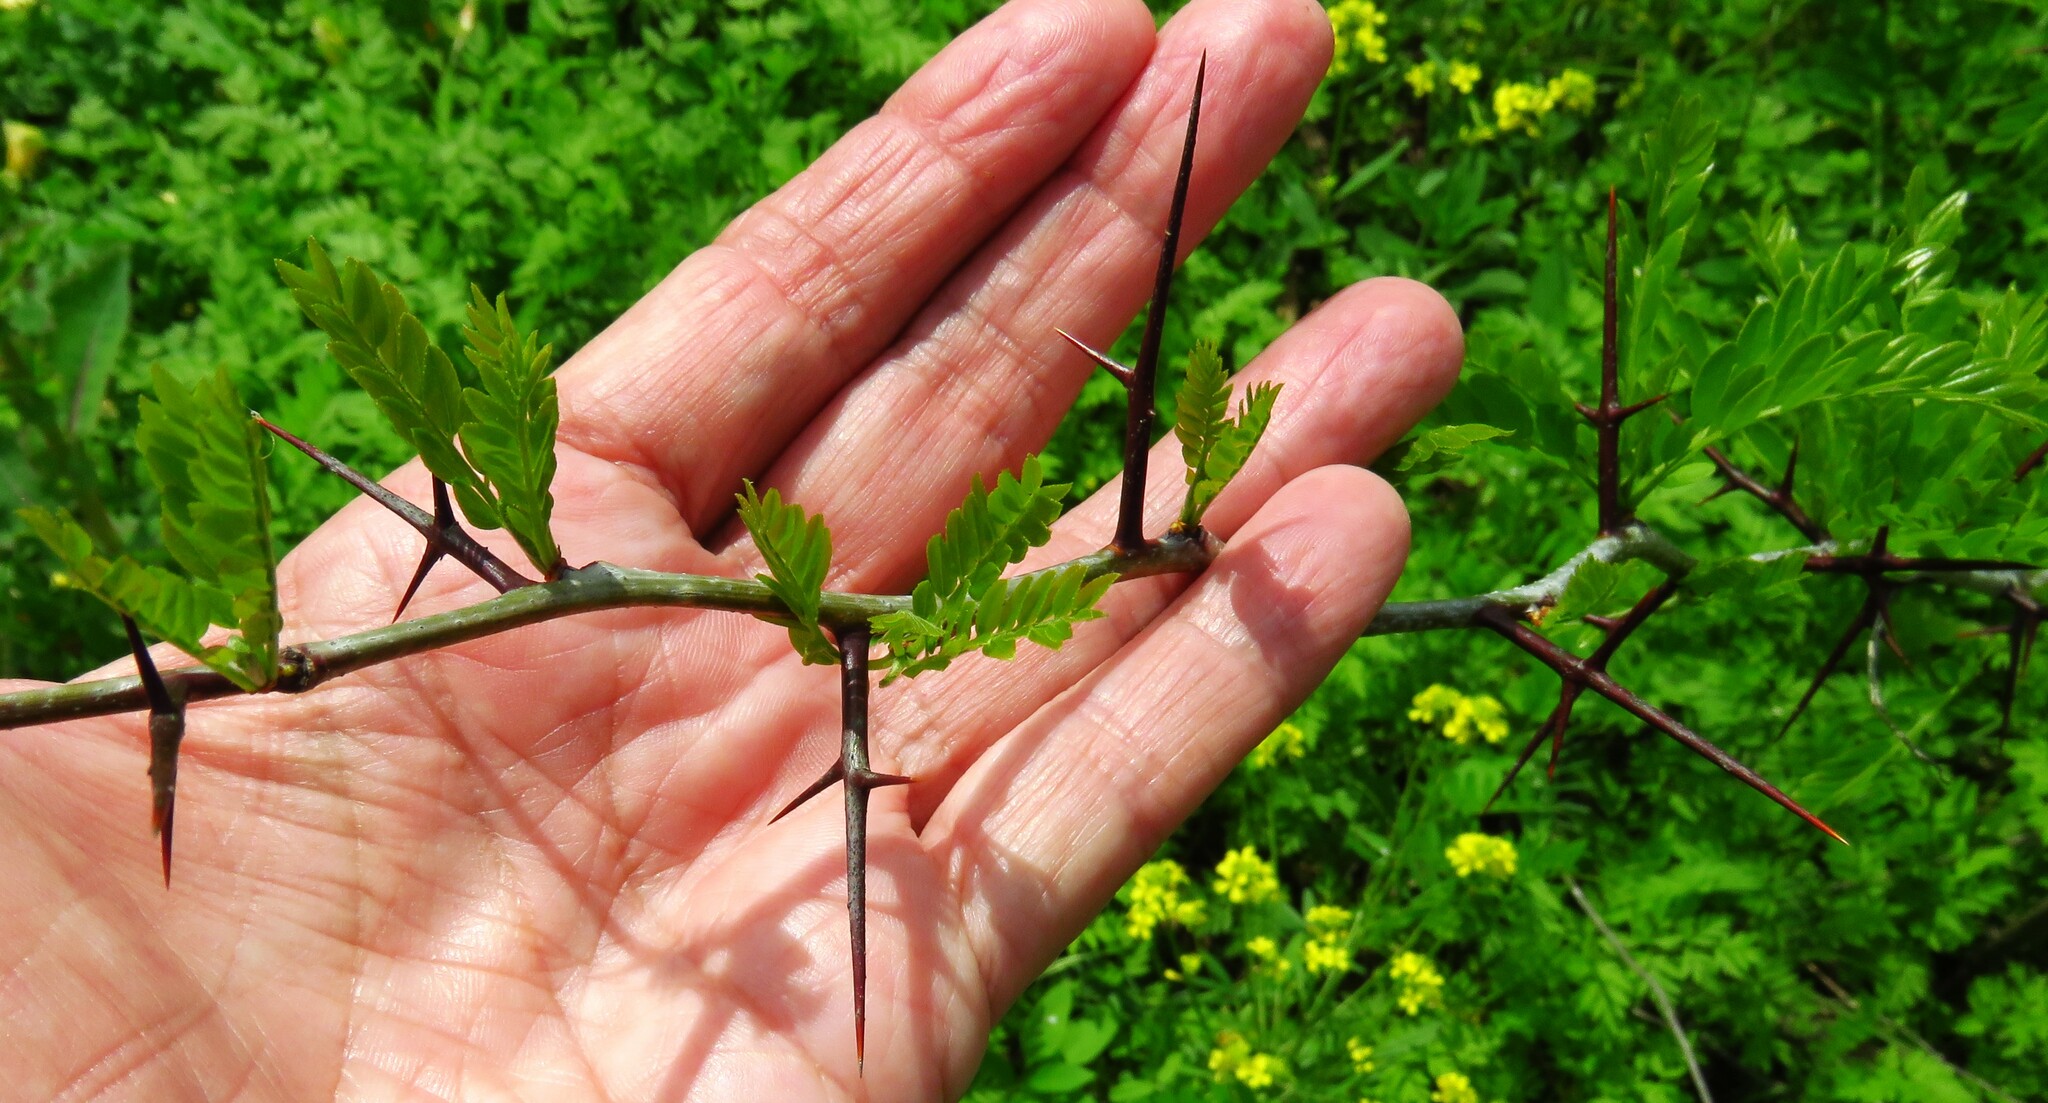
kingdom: Plantae
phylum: Tracheophyta
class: Magnoliopsida
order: Fabales
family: Fabaceae
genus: Gleditsia
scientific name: Gleditsia triacanthos
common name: Common honeylocust
